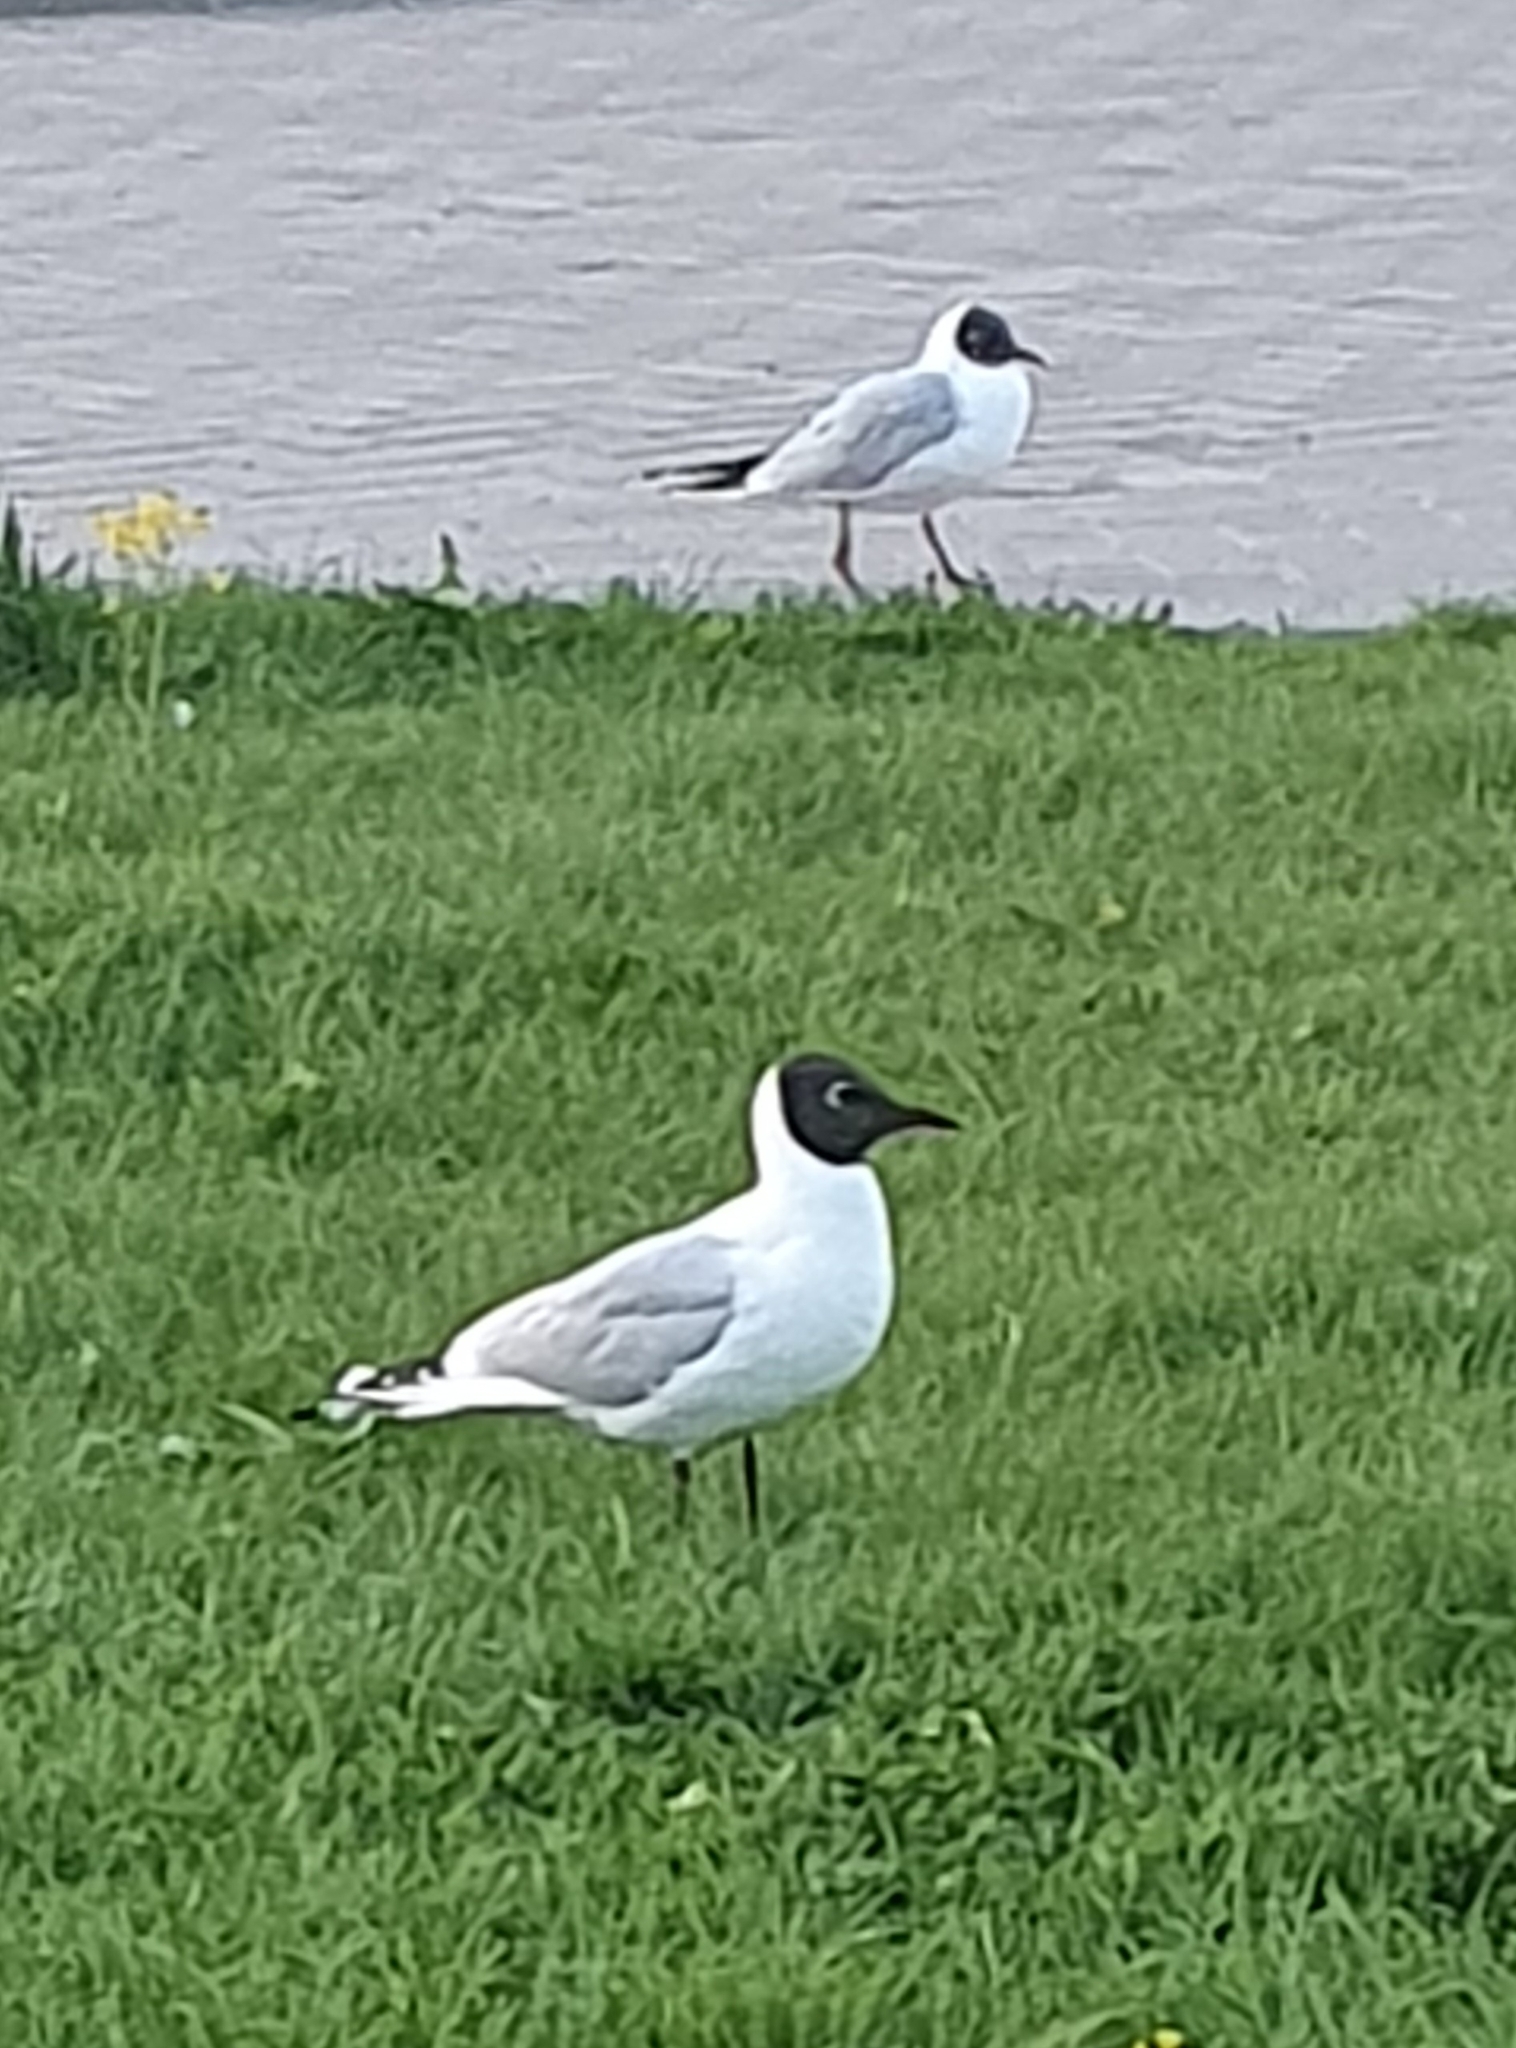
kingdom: Animalia
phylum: Chordata
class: Aves
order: Charadriiformes
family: Laridae
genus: Chroicocephalus
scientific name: Chroicocephalus ridibundus
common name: Black-headed gull
